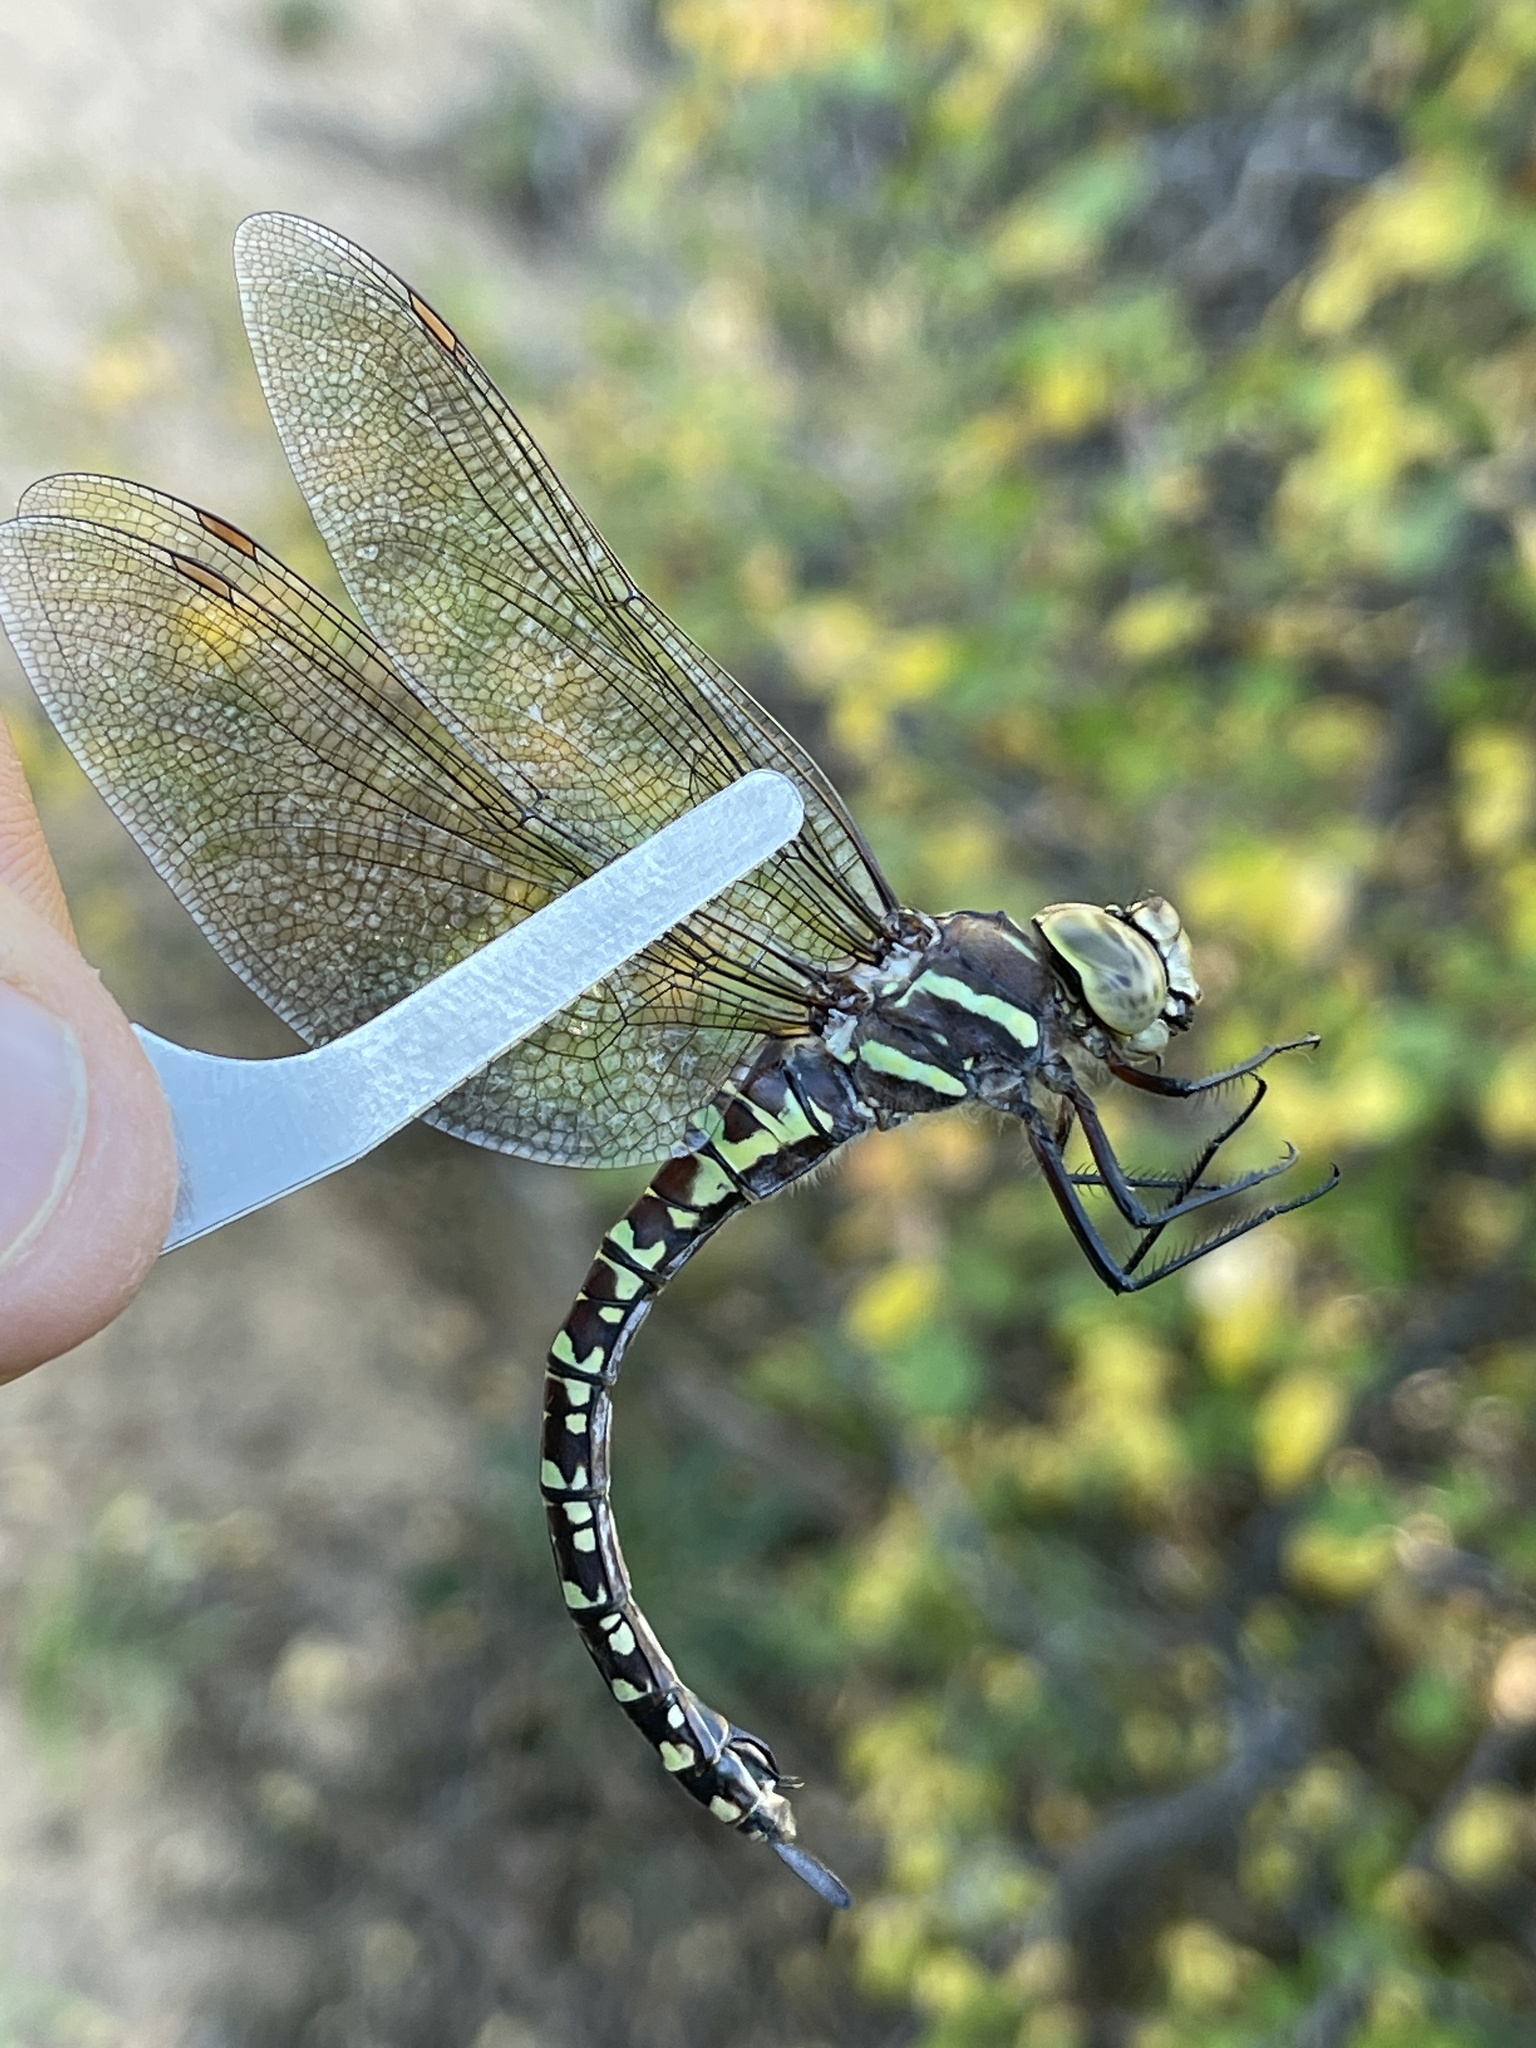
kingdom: Animalia
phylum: Arthropoda
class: Insecta
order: Odonata
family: Aeshnidae
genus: Aeshna
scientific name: Aeshna palmata
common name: Paddle-tailed darner
